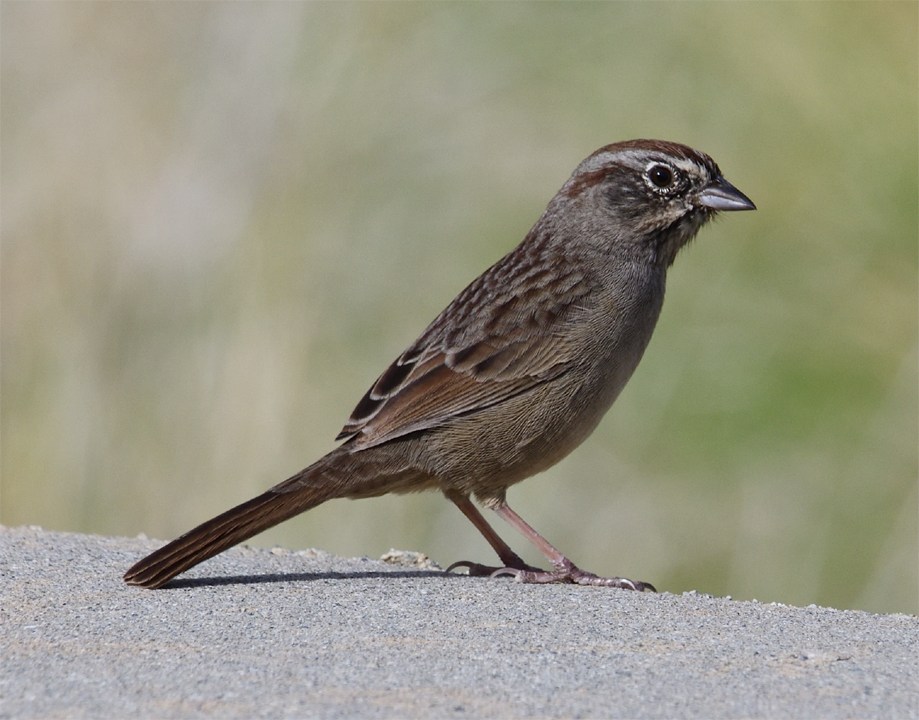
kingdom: Animalia
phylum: Chordata
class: Aves
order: Passeriformes
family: Passerellidae
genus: Aimophila
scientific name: Aimophila ruficeps
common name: Rufous-crowned sparrow
